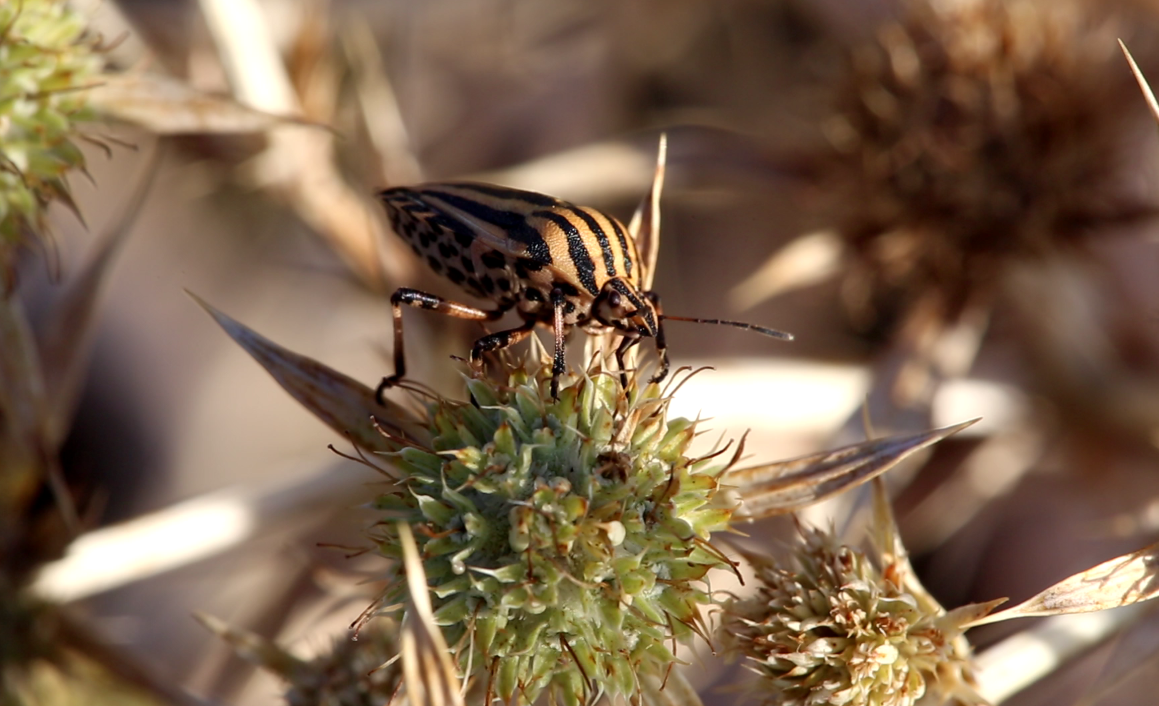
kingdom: Animalia
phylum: Arthropoda
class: Insecta
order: Hemiptera
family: Pentatomidae
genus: Graphosoma
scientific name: Graphosoma italicum
